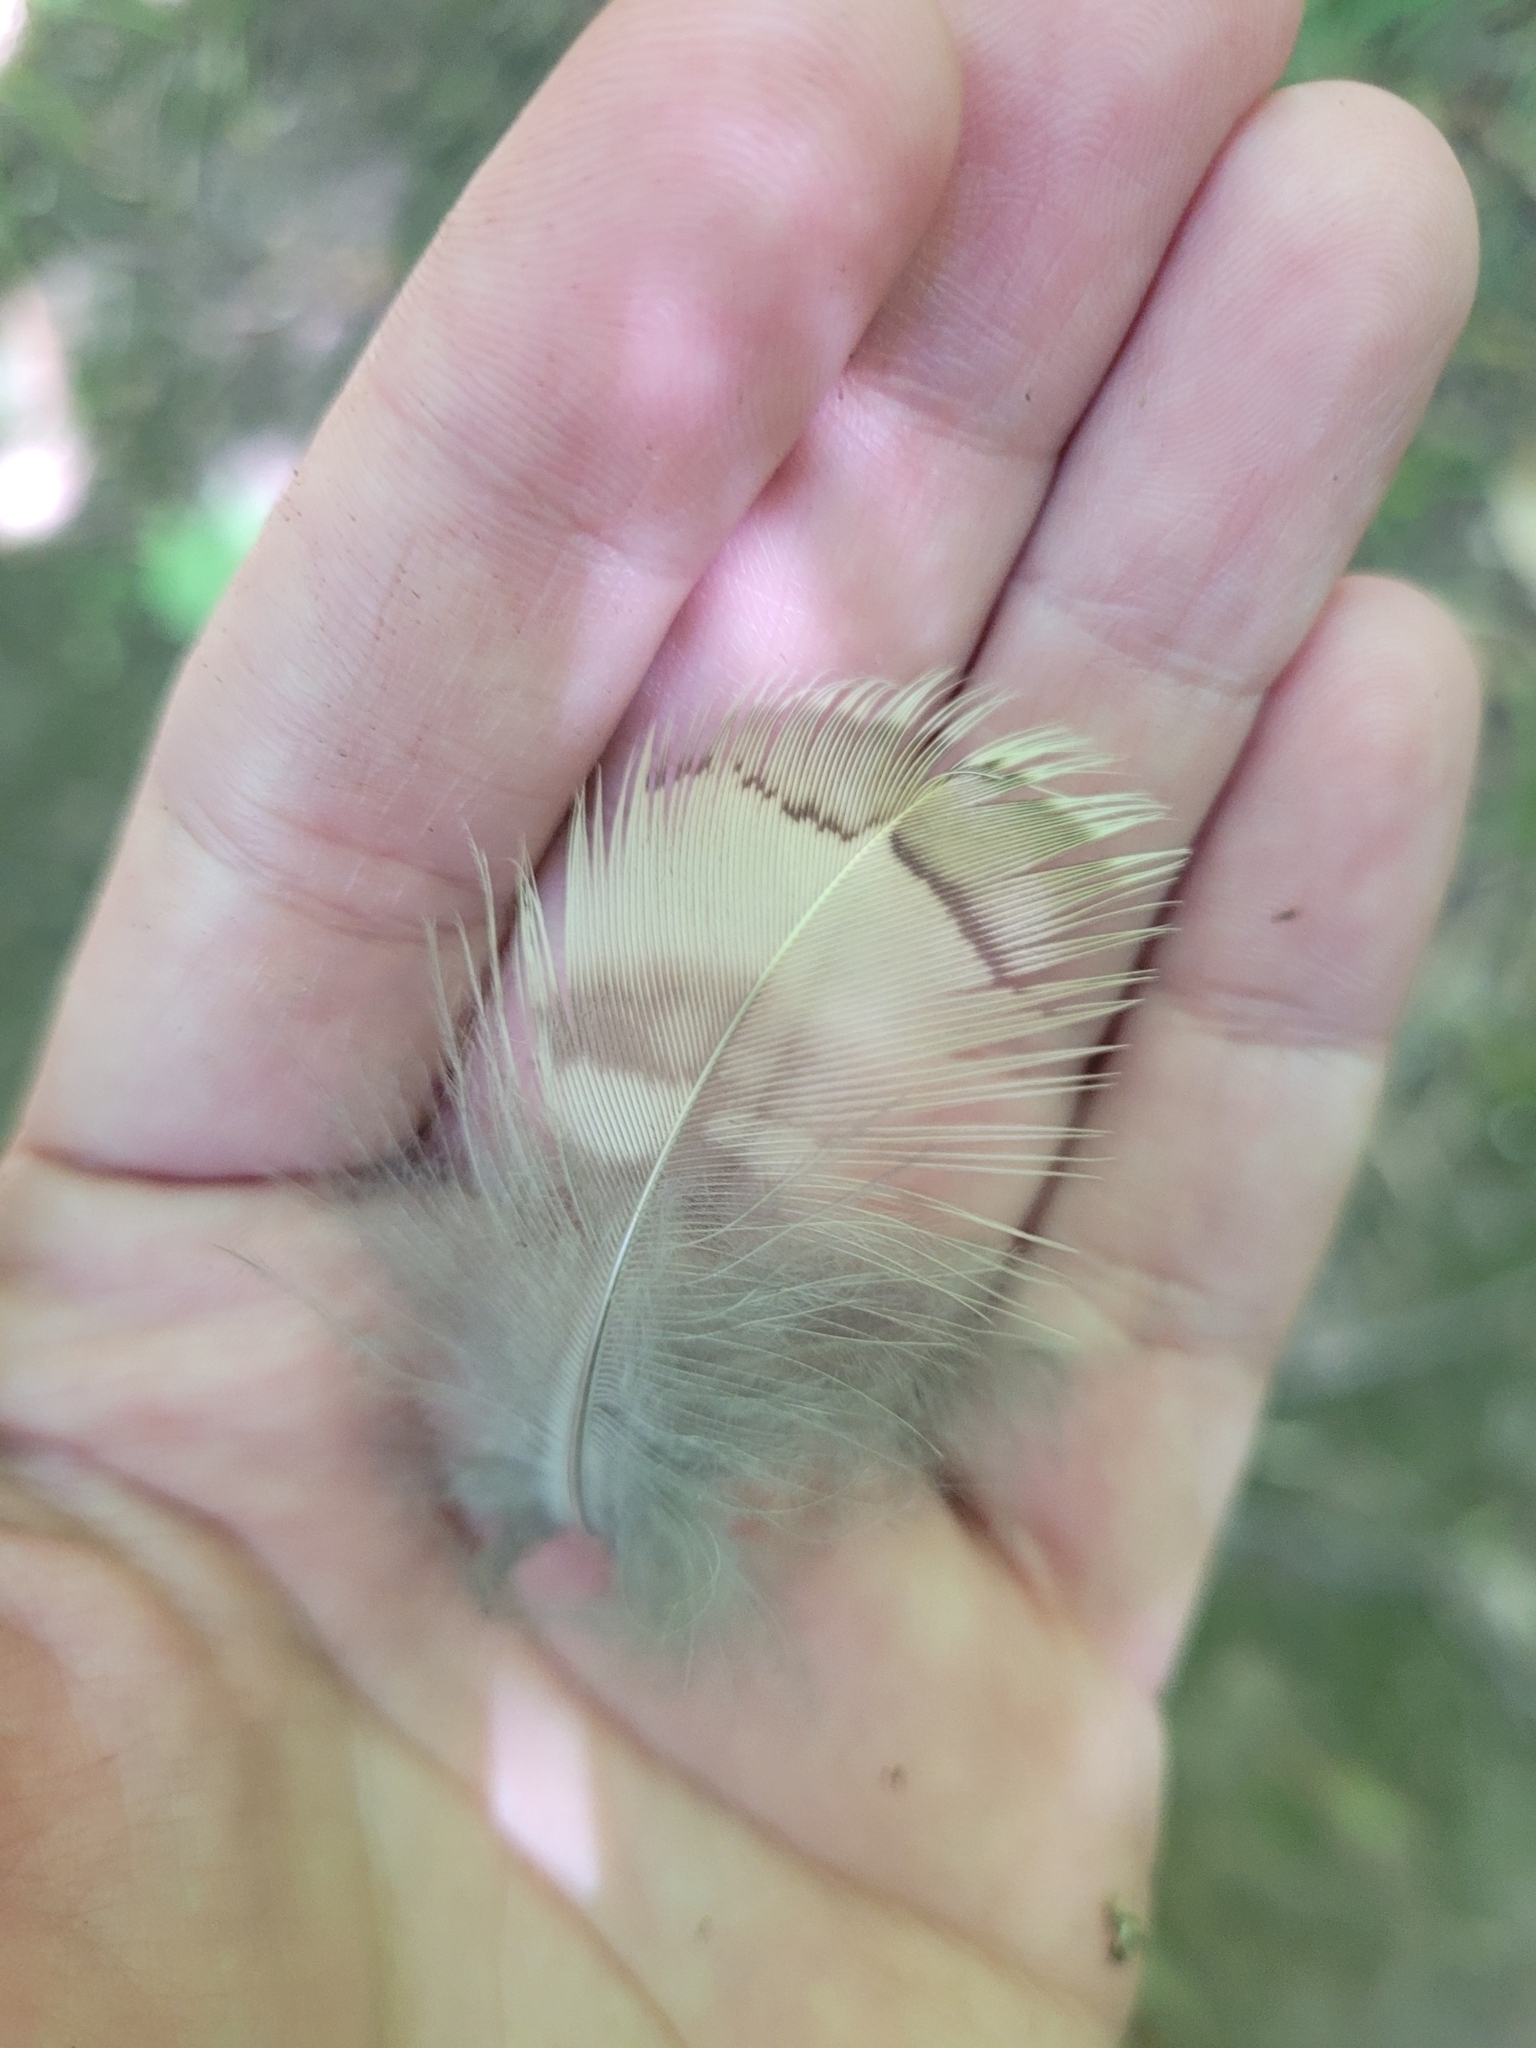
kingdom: Animalia
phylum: Chordata
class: Aves
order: Galliformes
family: Phasianidae
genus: Bonasa
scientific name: Bonasa umbellus
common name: Ruffed grouse
